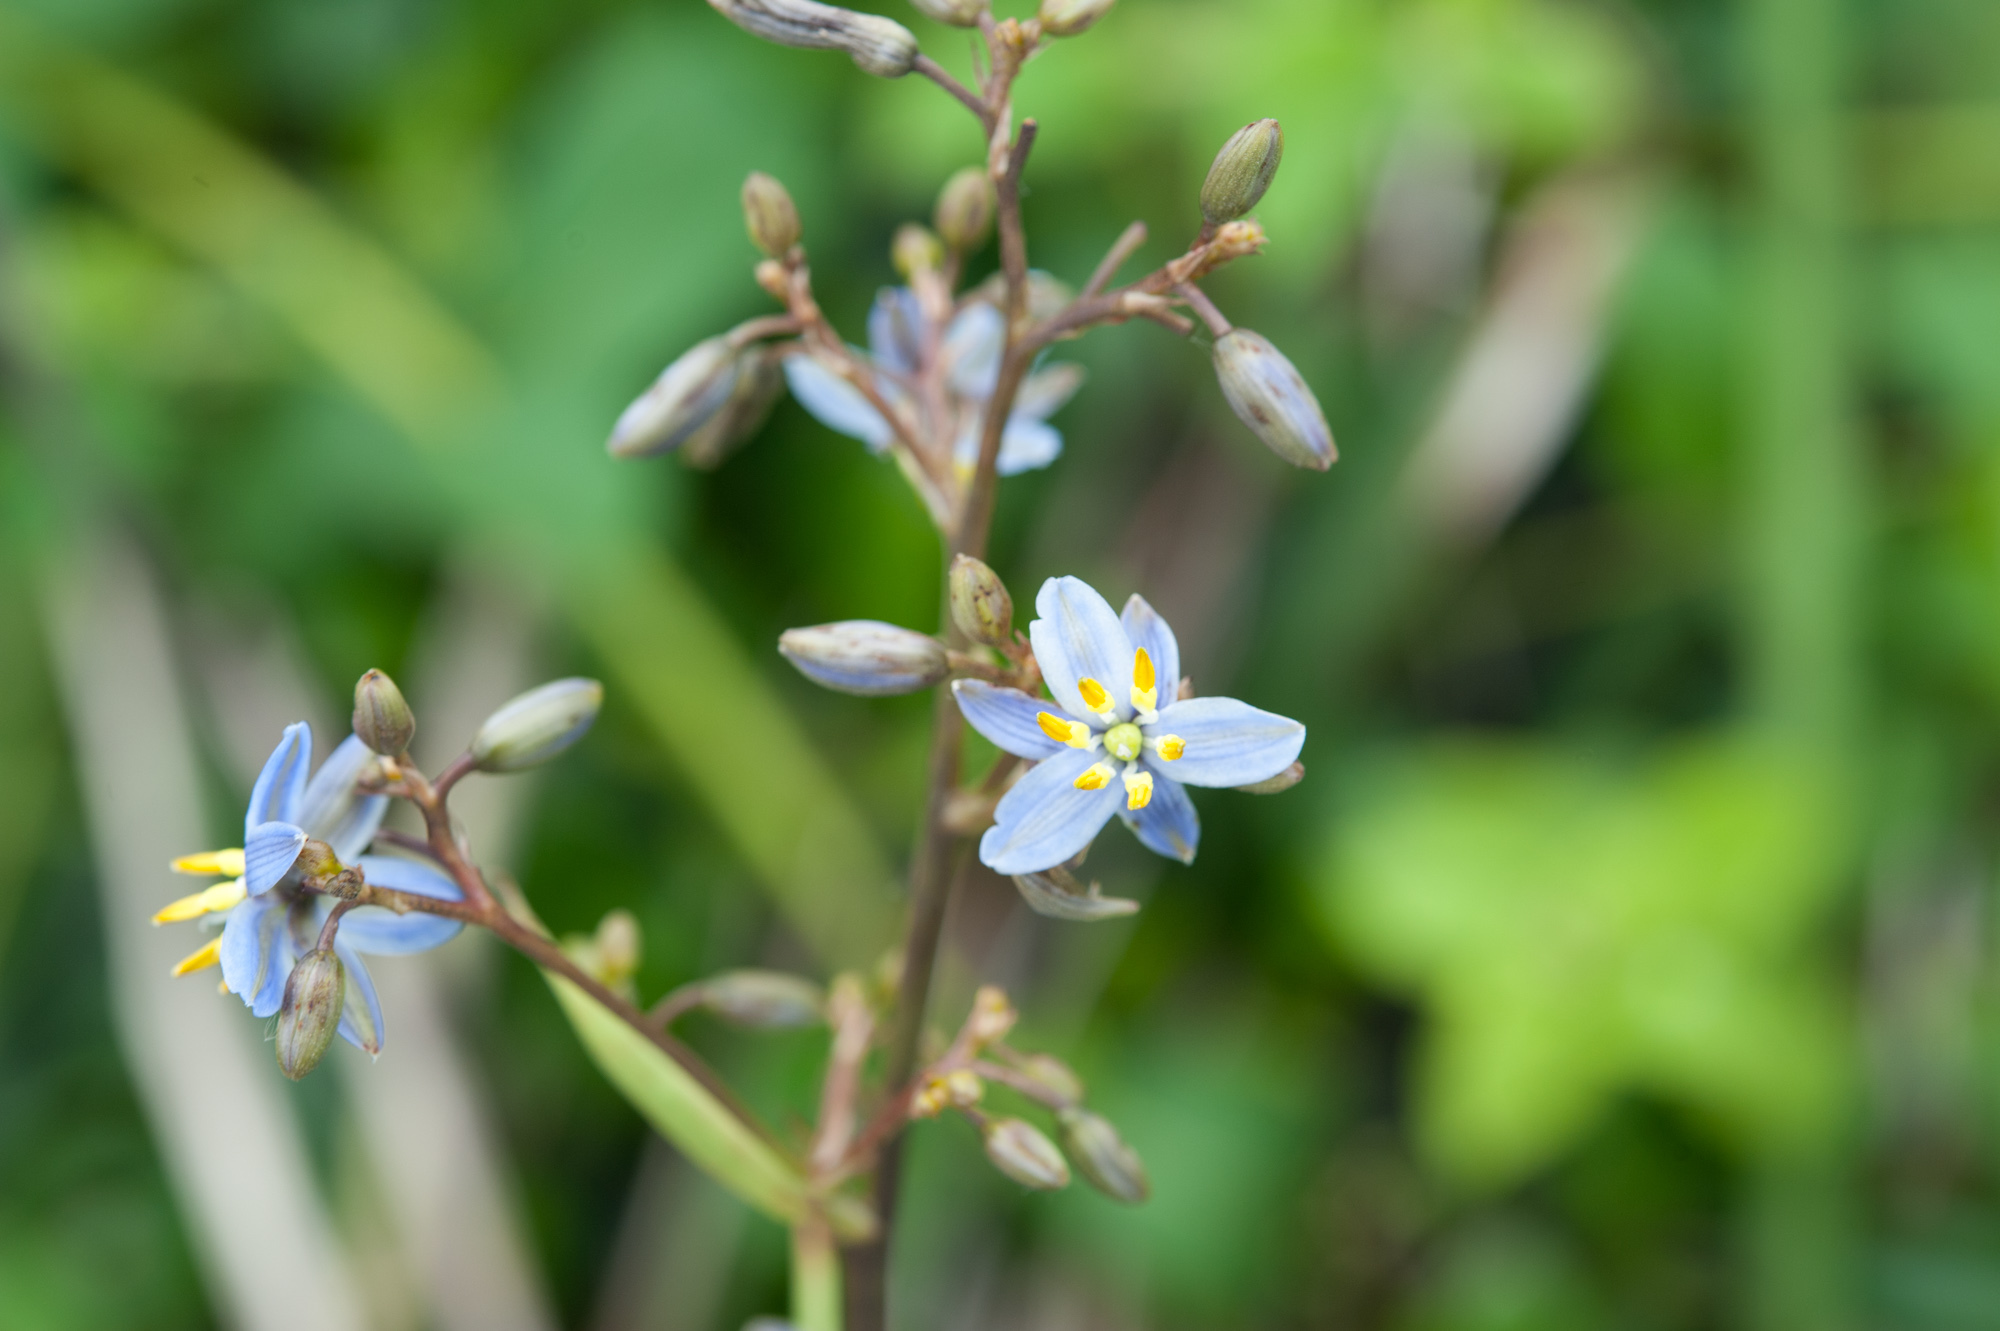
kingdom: Plantae
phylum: Tracheophyta
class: Liliopsida
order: Asparagales
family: Asphodelaceae
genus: Dianella
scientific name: Dianella ensifolia
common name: New zealand lilyplant
